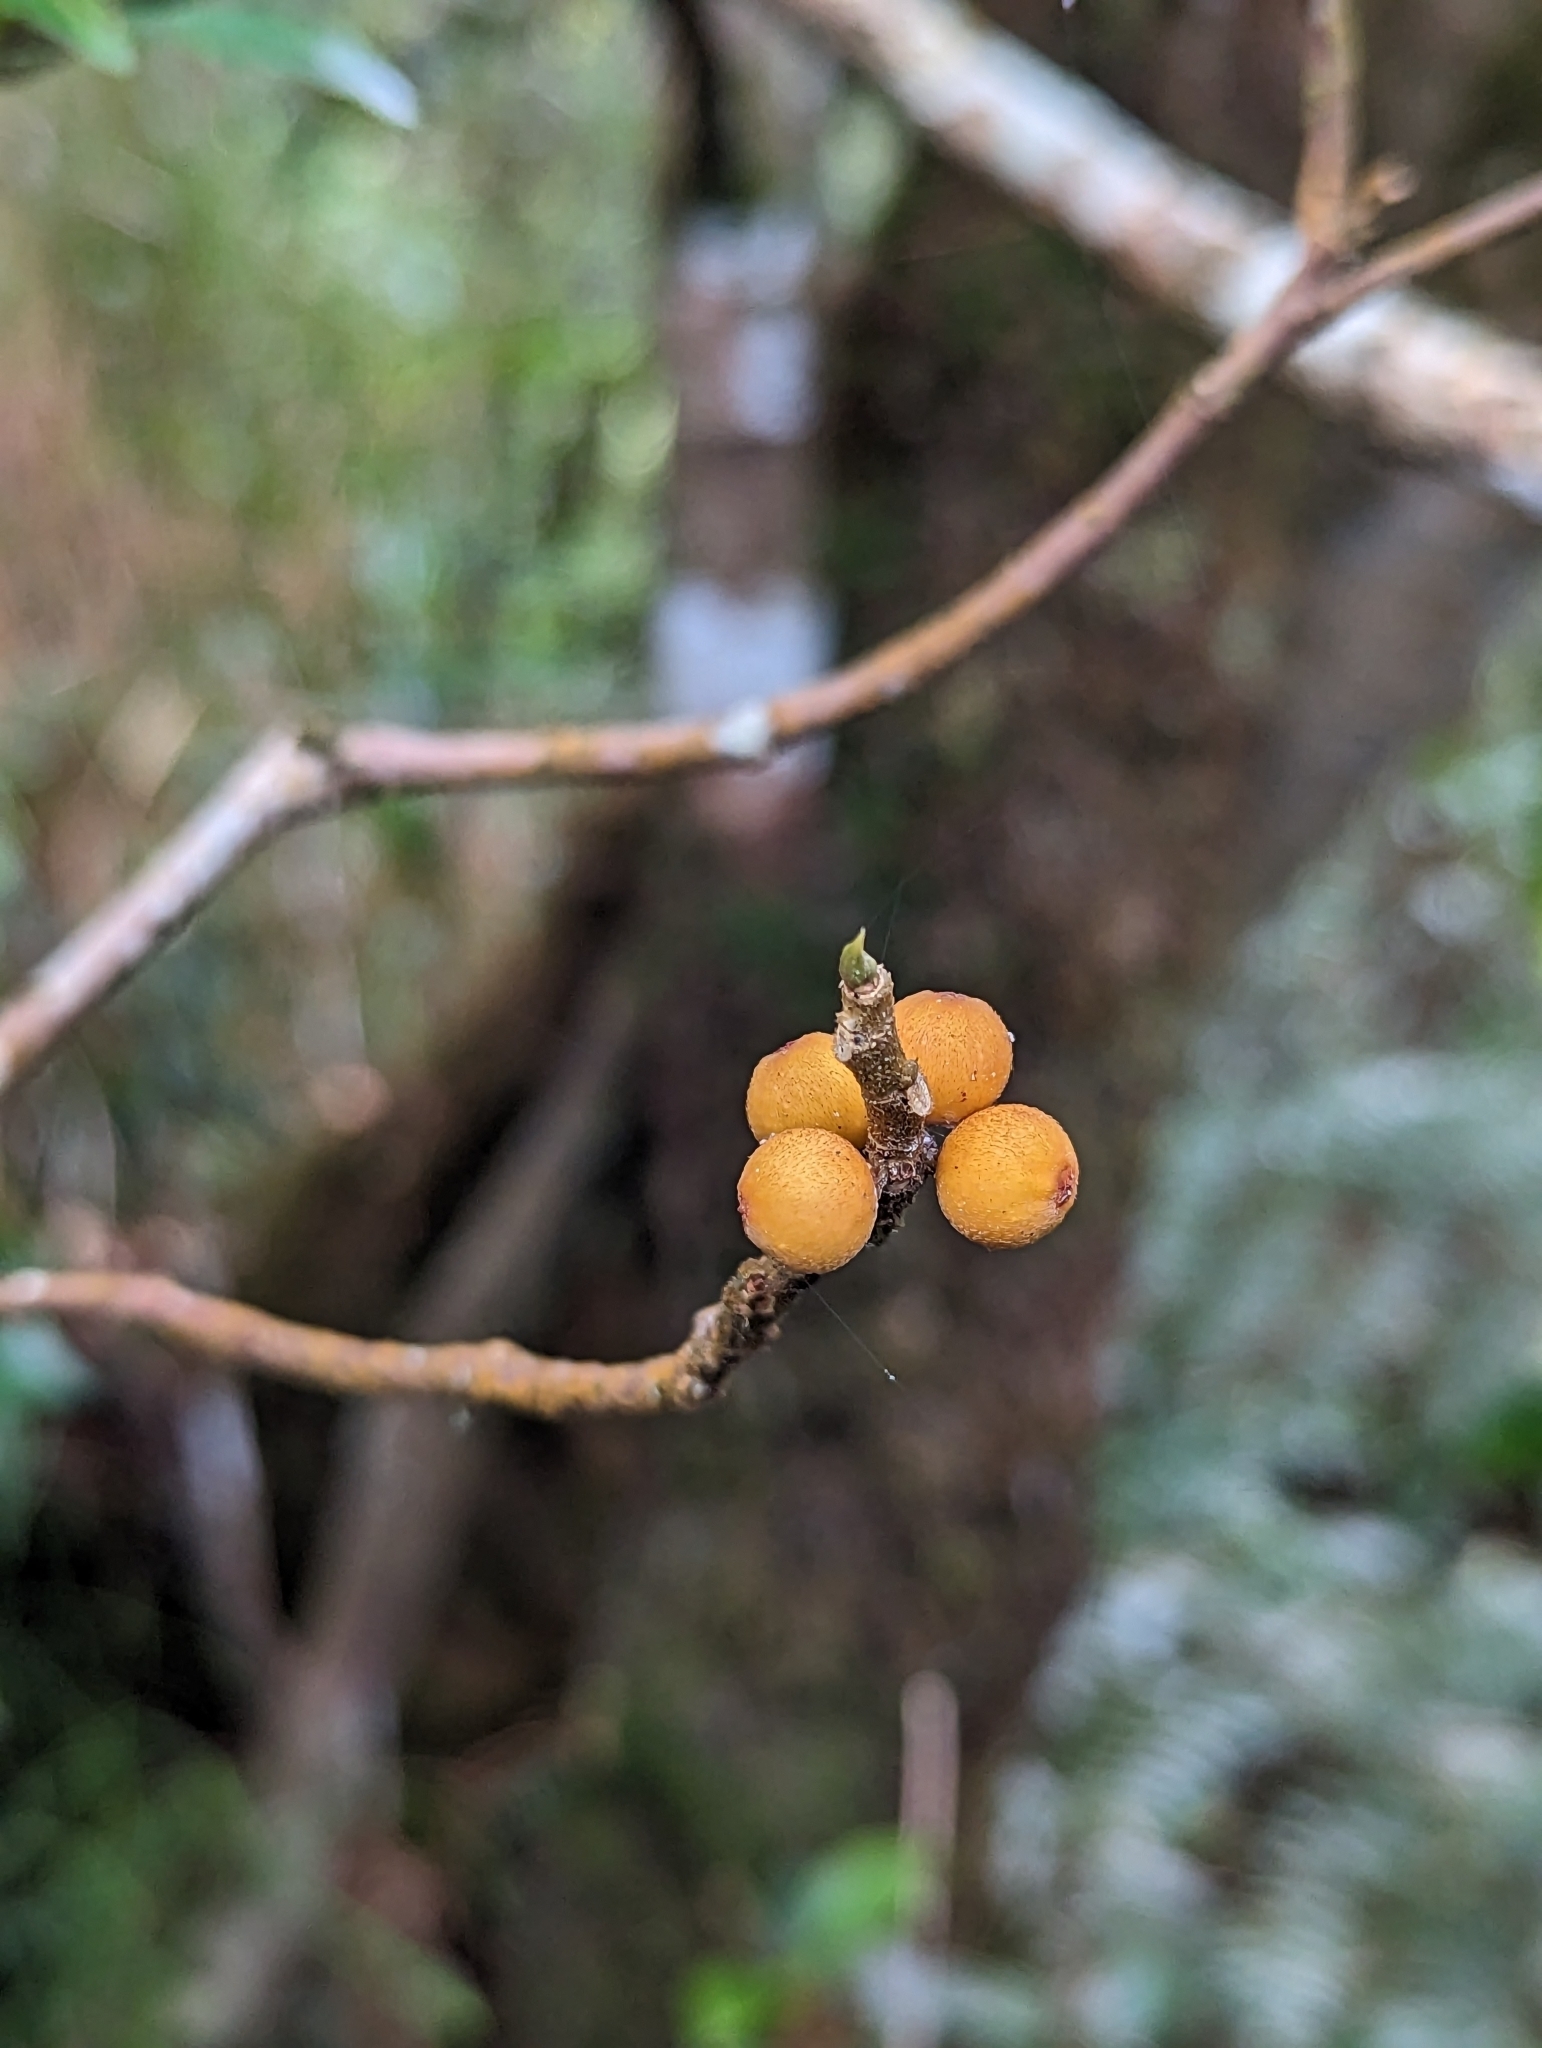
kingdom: Plantae
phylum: Tracheophyta
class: Magnoliopsida
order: Rosales
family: Moraceae
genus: Ficus
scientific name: Ficus grossularioides
